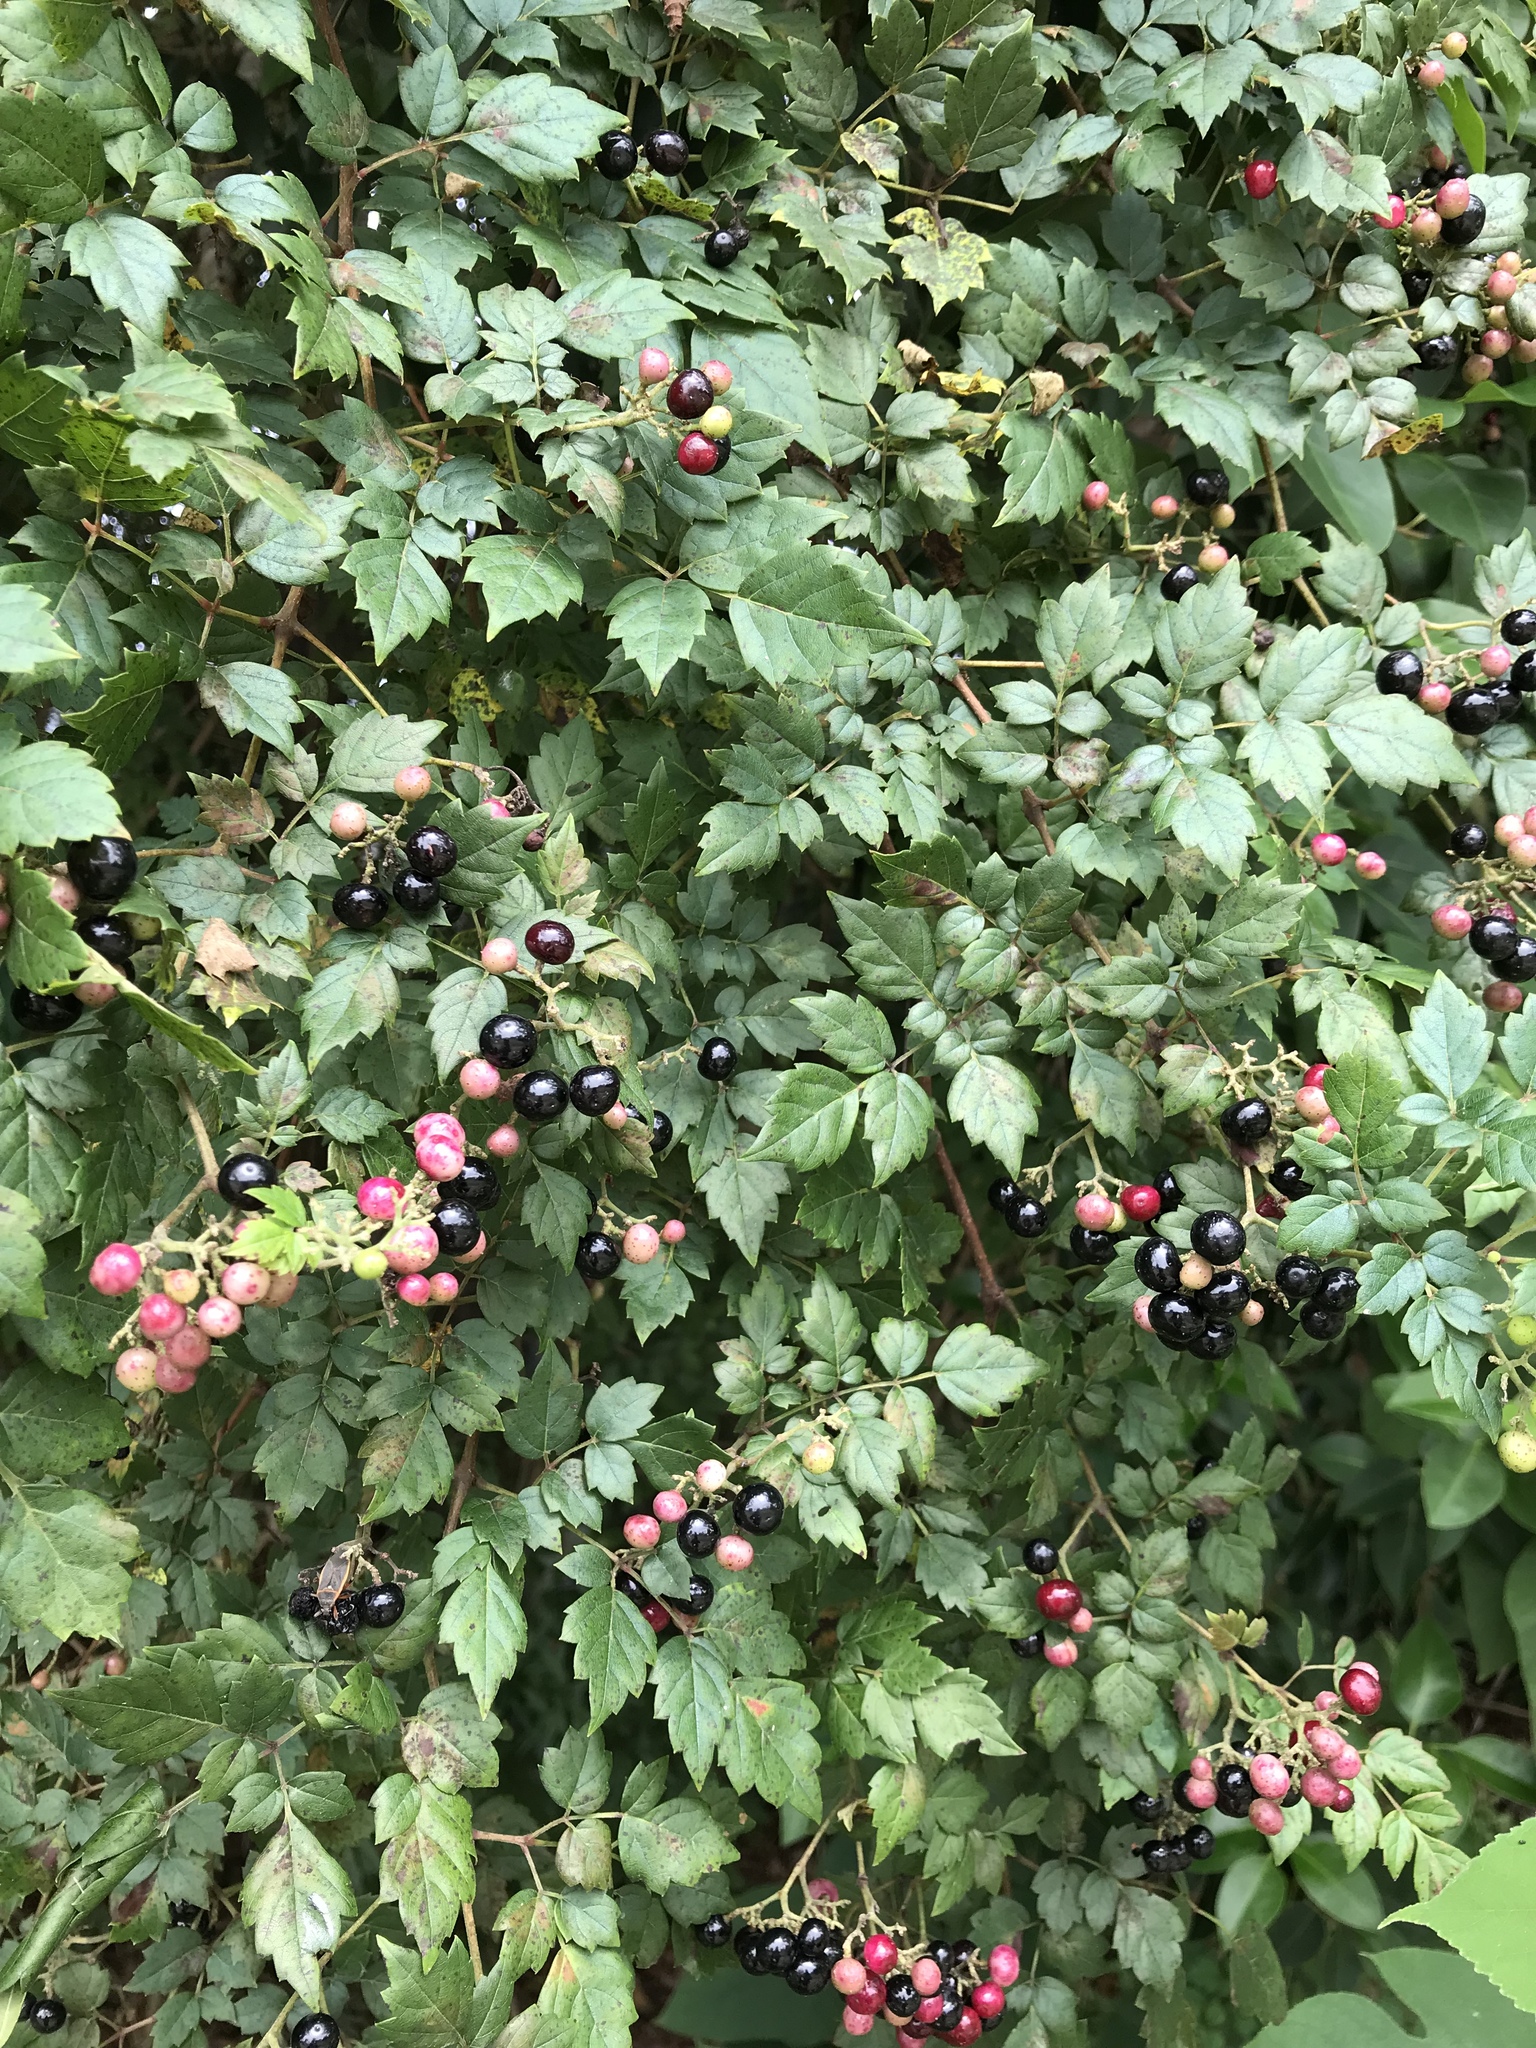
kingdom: Plantae
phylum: Tracheophyta
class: Magnoliopsida
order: Vitales
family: Vitaceae
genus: Nekemias
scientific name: Nekemias arborea
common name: Peppervine
